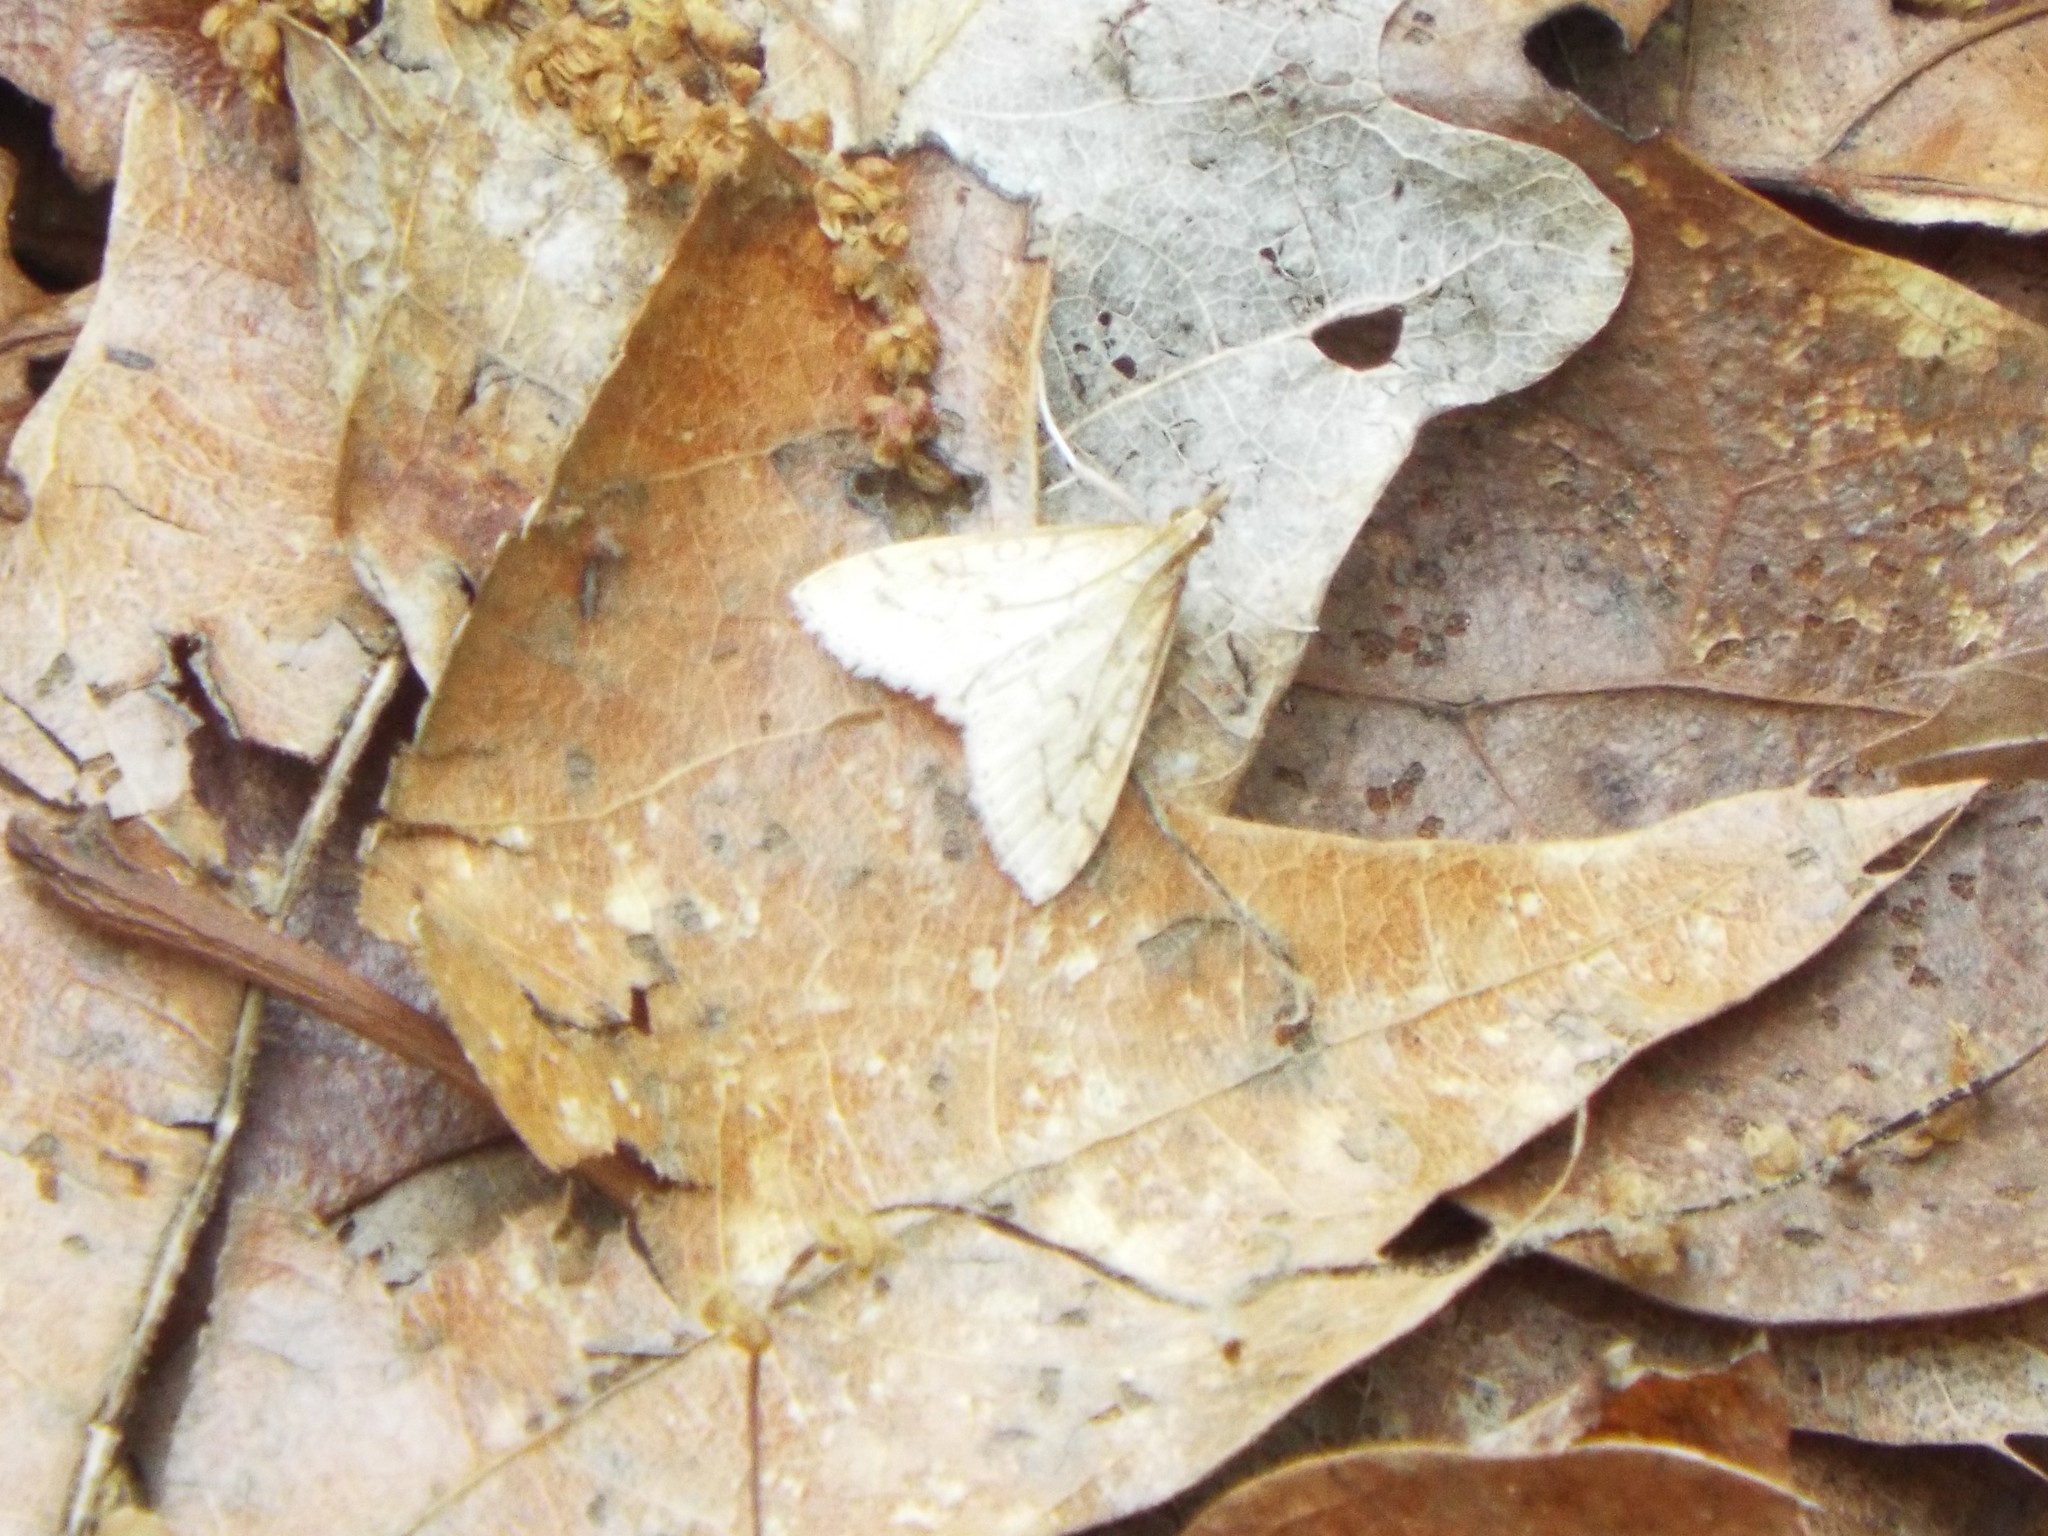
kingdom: Animalia
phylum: Arthropoda
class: Insecta
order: Lepidoptera
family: Crambidae
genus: Udea
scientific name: Udea rubigalis
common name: Celery leaftier moth
